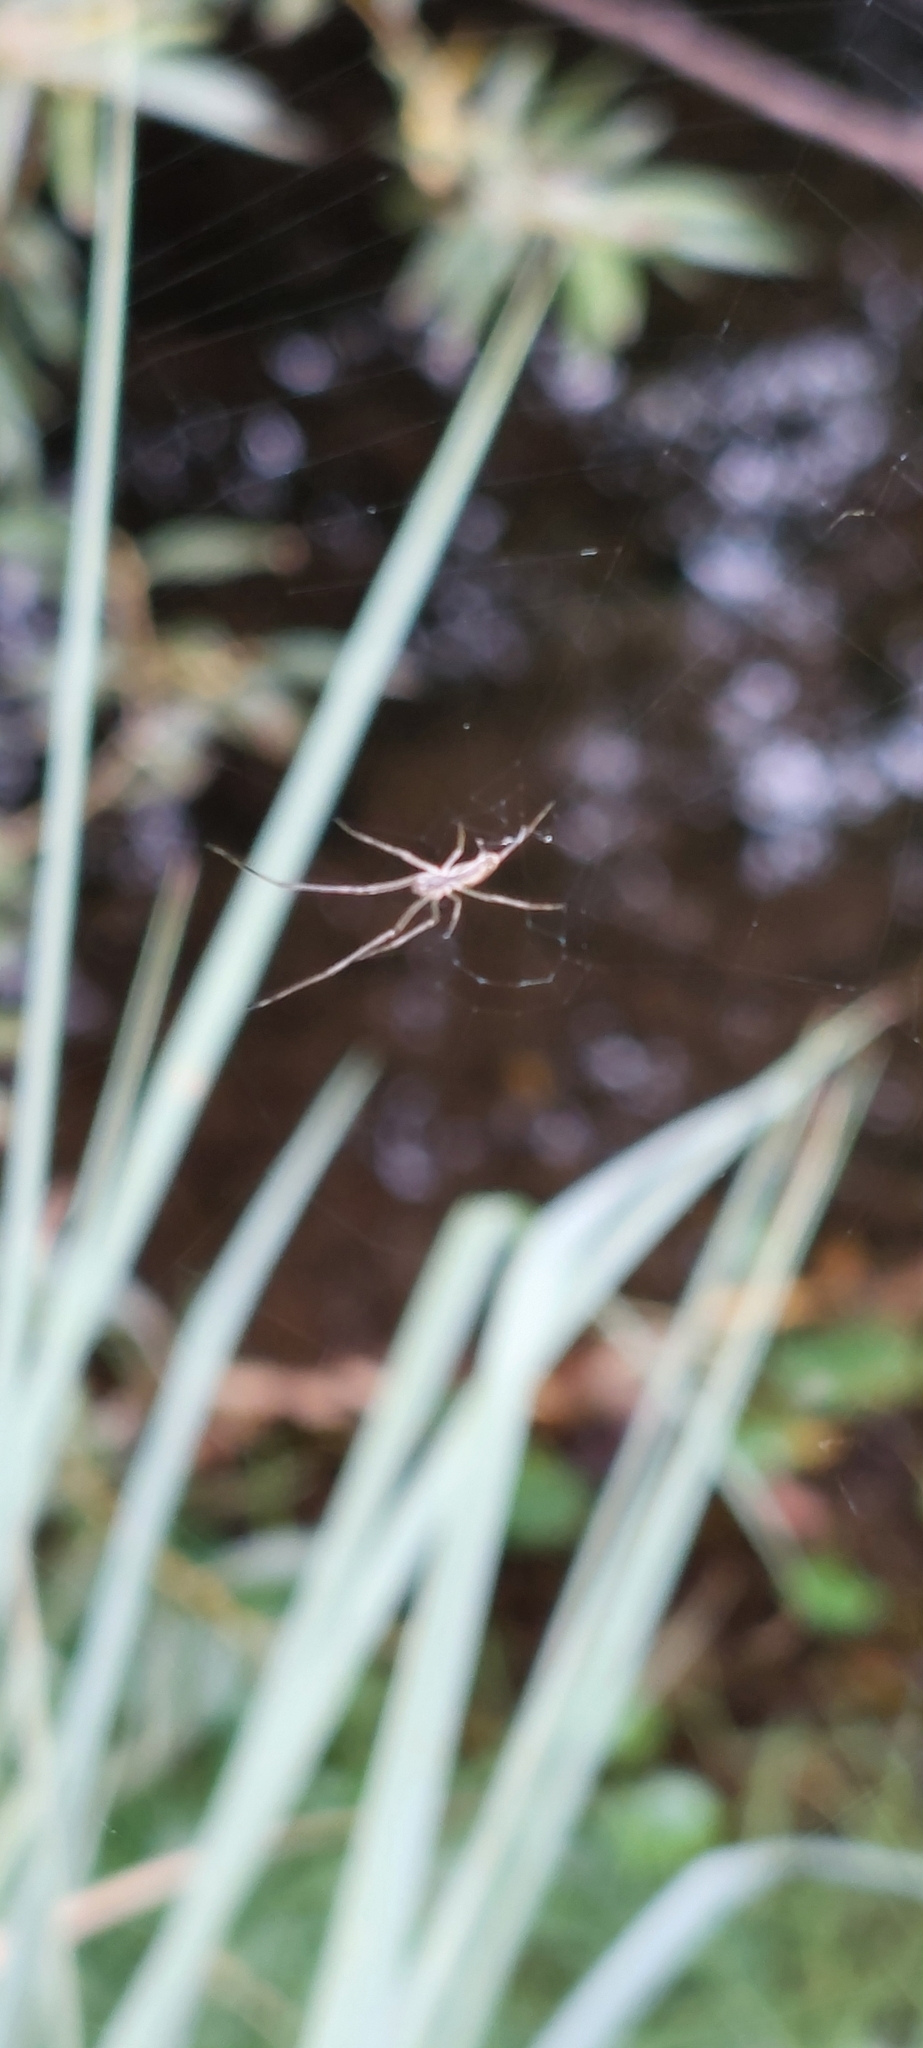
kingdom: Animalia
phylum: Arthropoda
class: Arachnida
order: Araneae
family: Tetragnathidae
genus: Tetragnatha
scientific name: Tetragnatha
